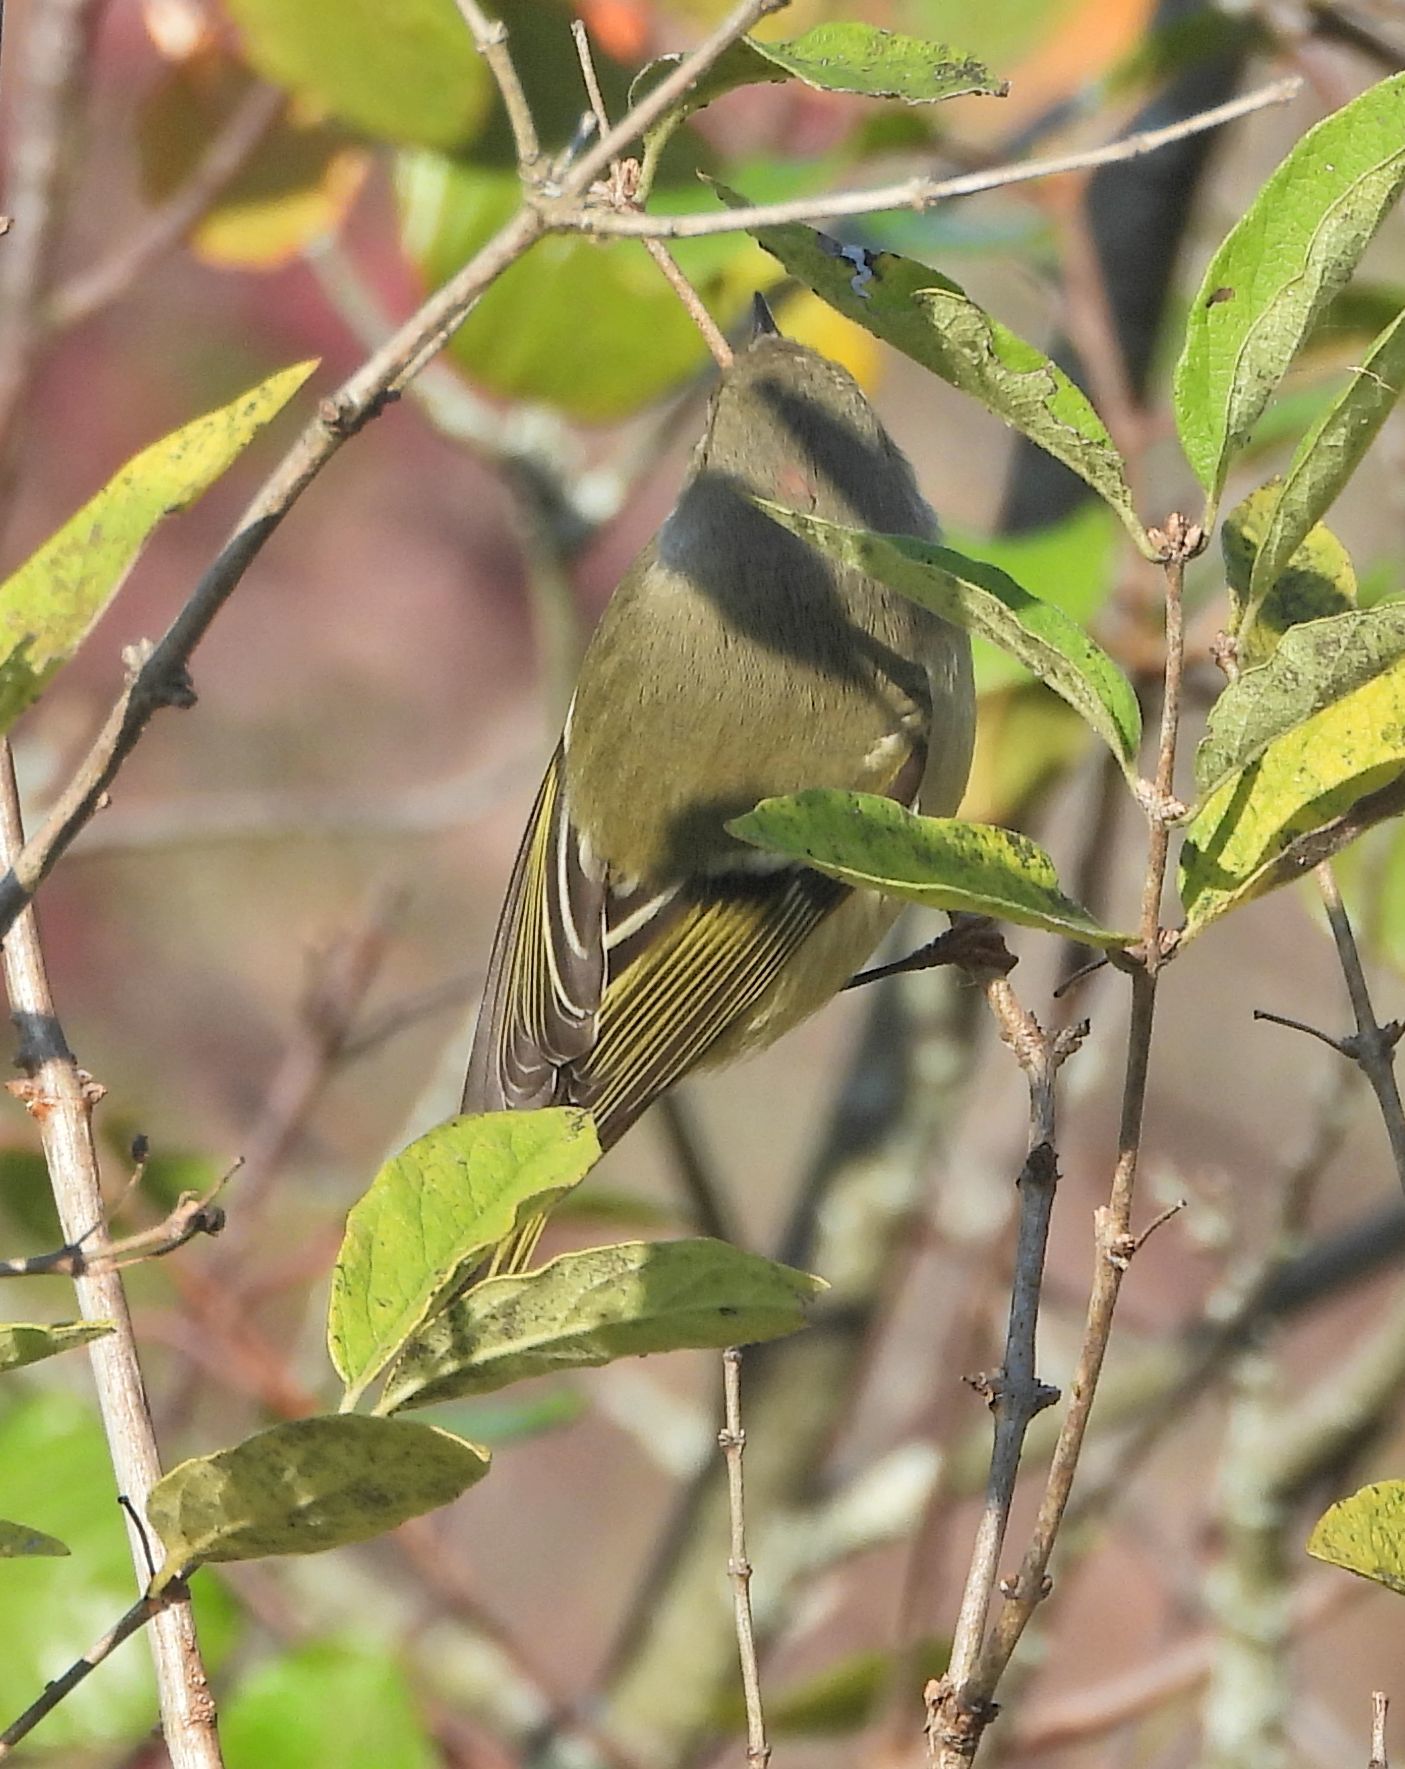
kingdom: Animalia
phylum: Chordata
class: Aves
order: Passeriformes
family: Regulidae
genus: Regulus
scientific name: Regulus calendula
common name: Ruby-crowned kinglet
